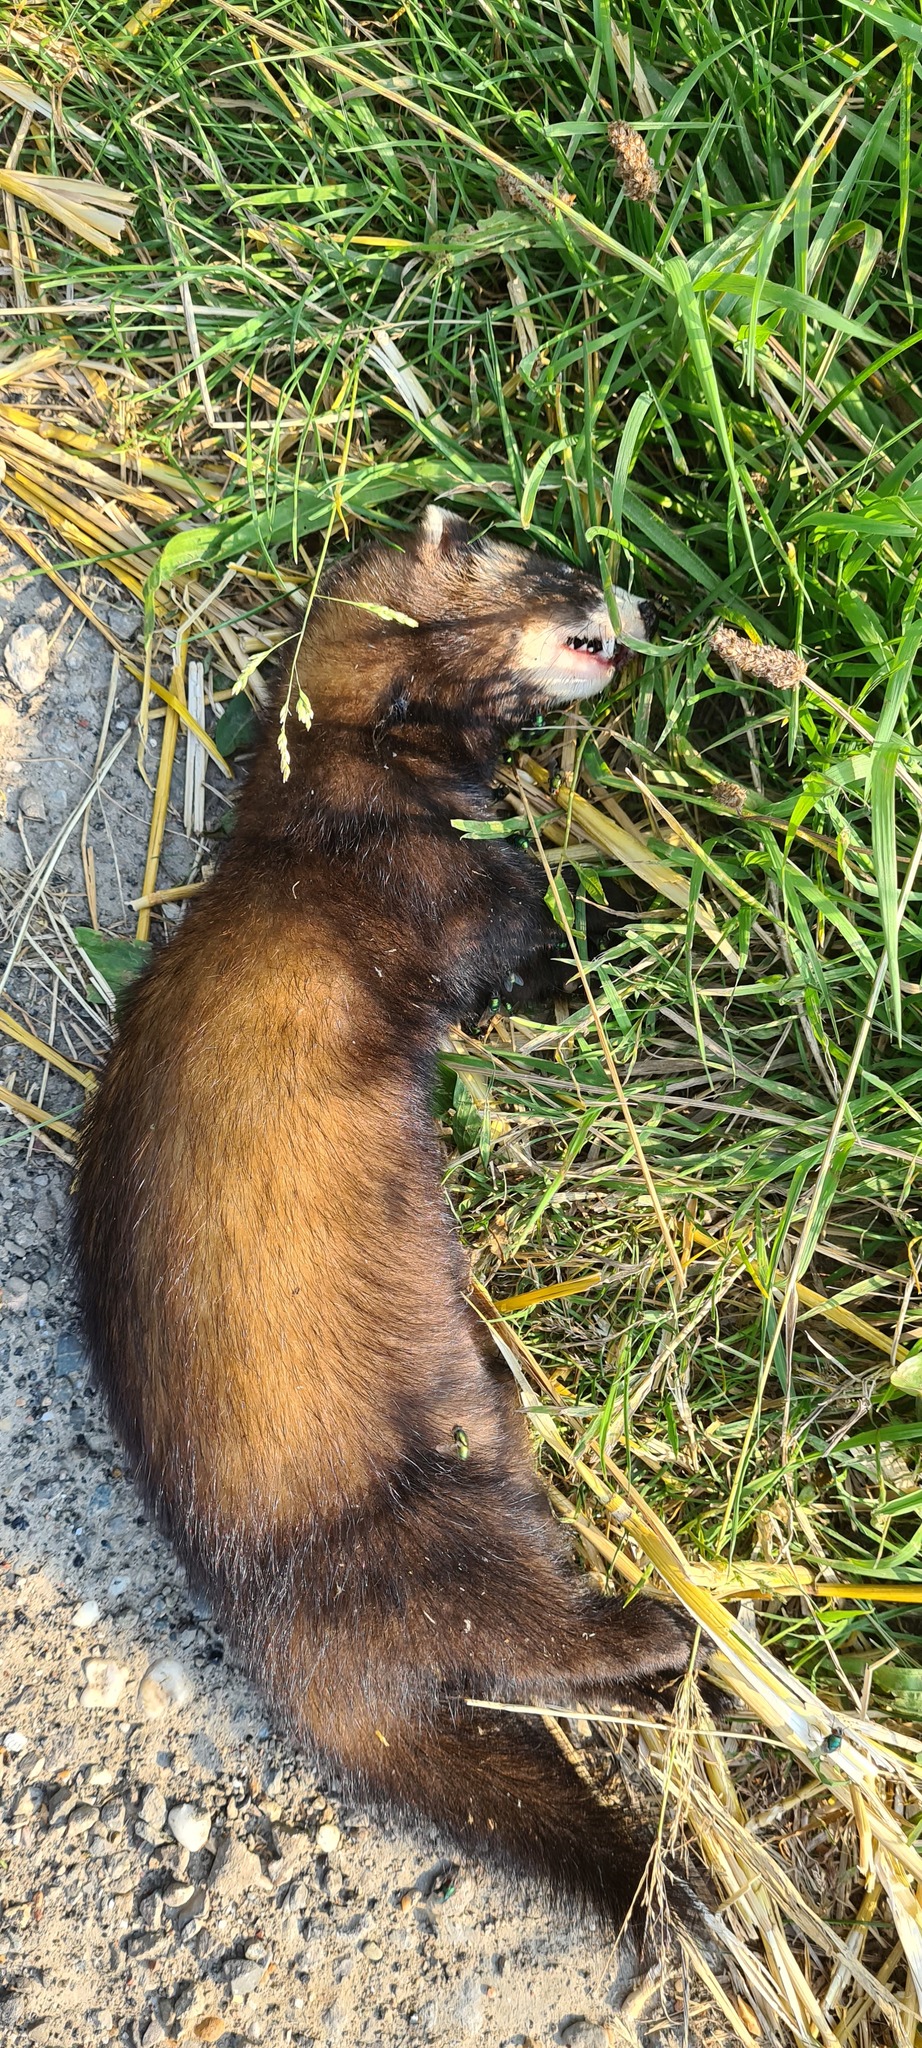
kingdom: Animalia
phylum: Chordata
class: Mammalia
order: Carnivora
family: Mustelidae
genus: Mustela
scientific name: Mustela putorius
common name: European polecat
